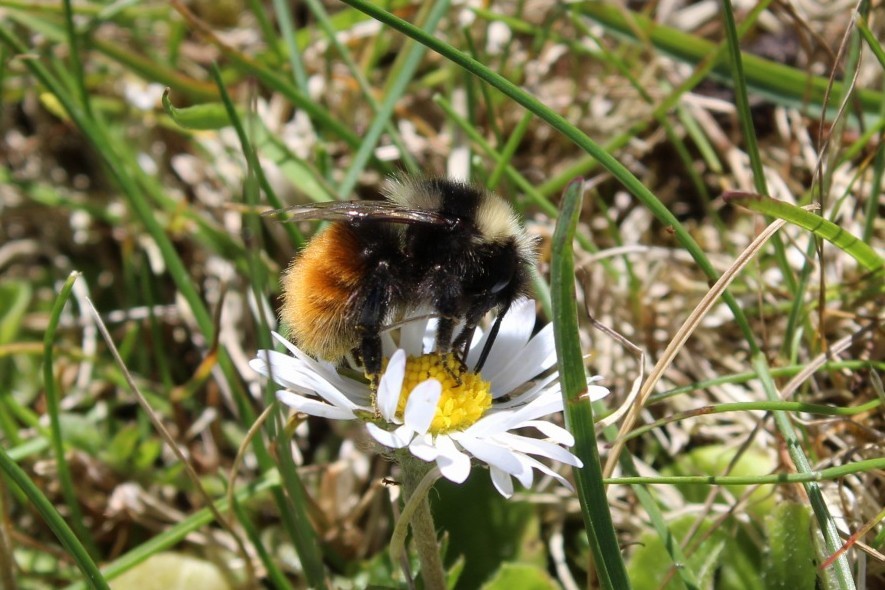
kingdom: Animalia
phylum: Arthropoda
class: Insecta
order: Hymenoptera
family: Apidae
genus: Bombus
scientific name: Bombus monticola
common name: Bilberry humble-bee
